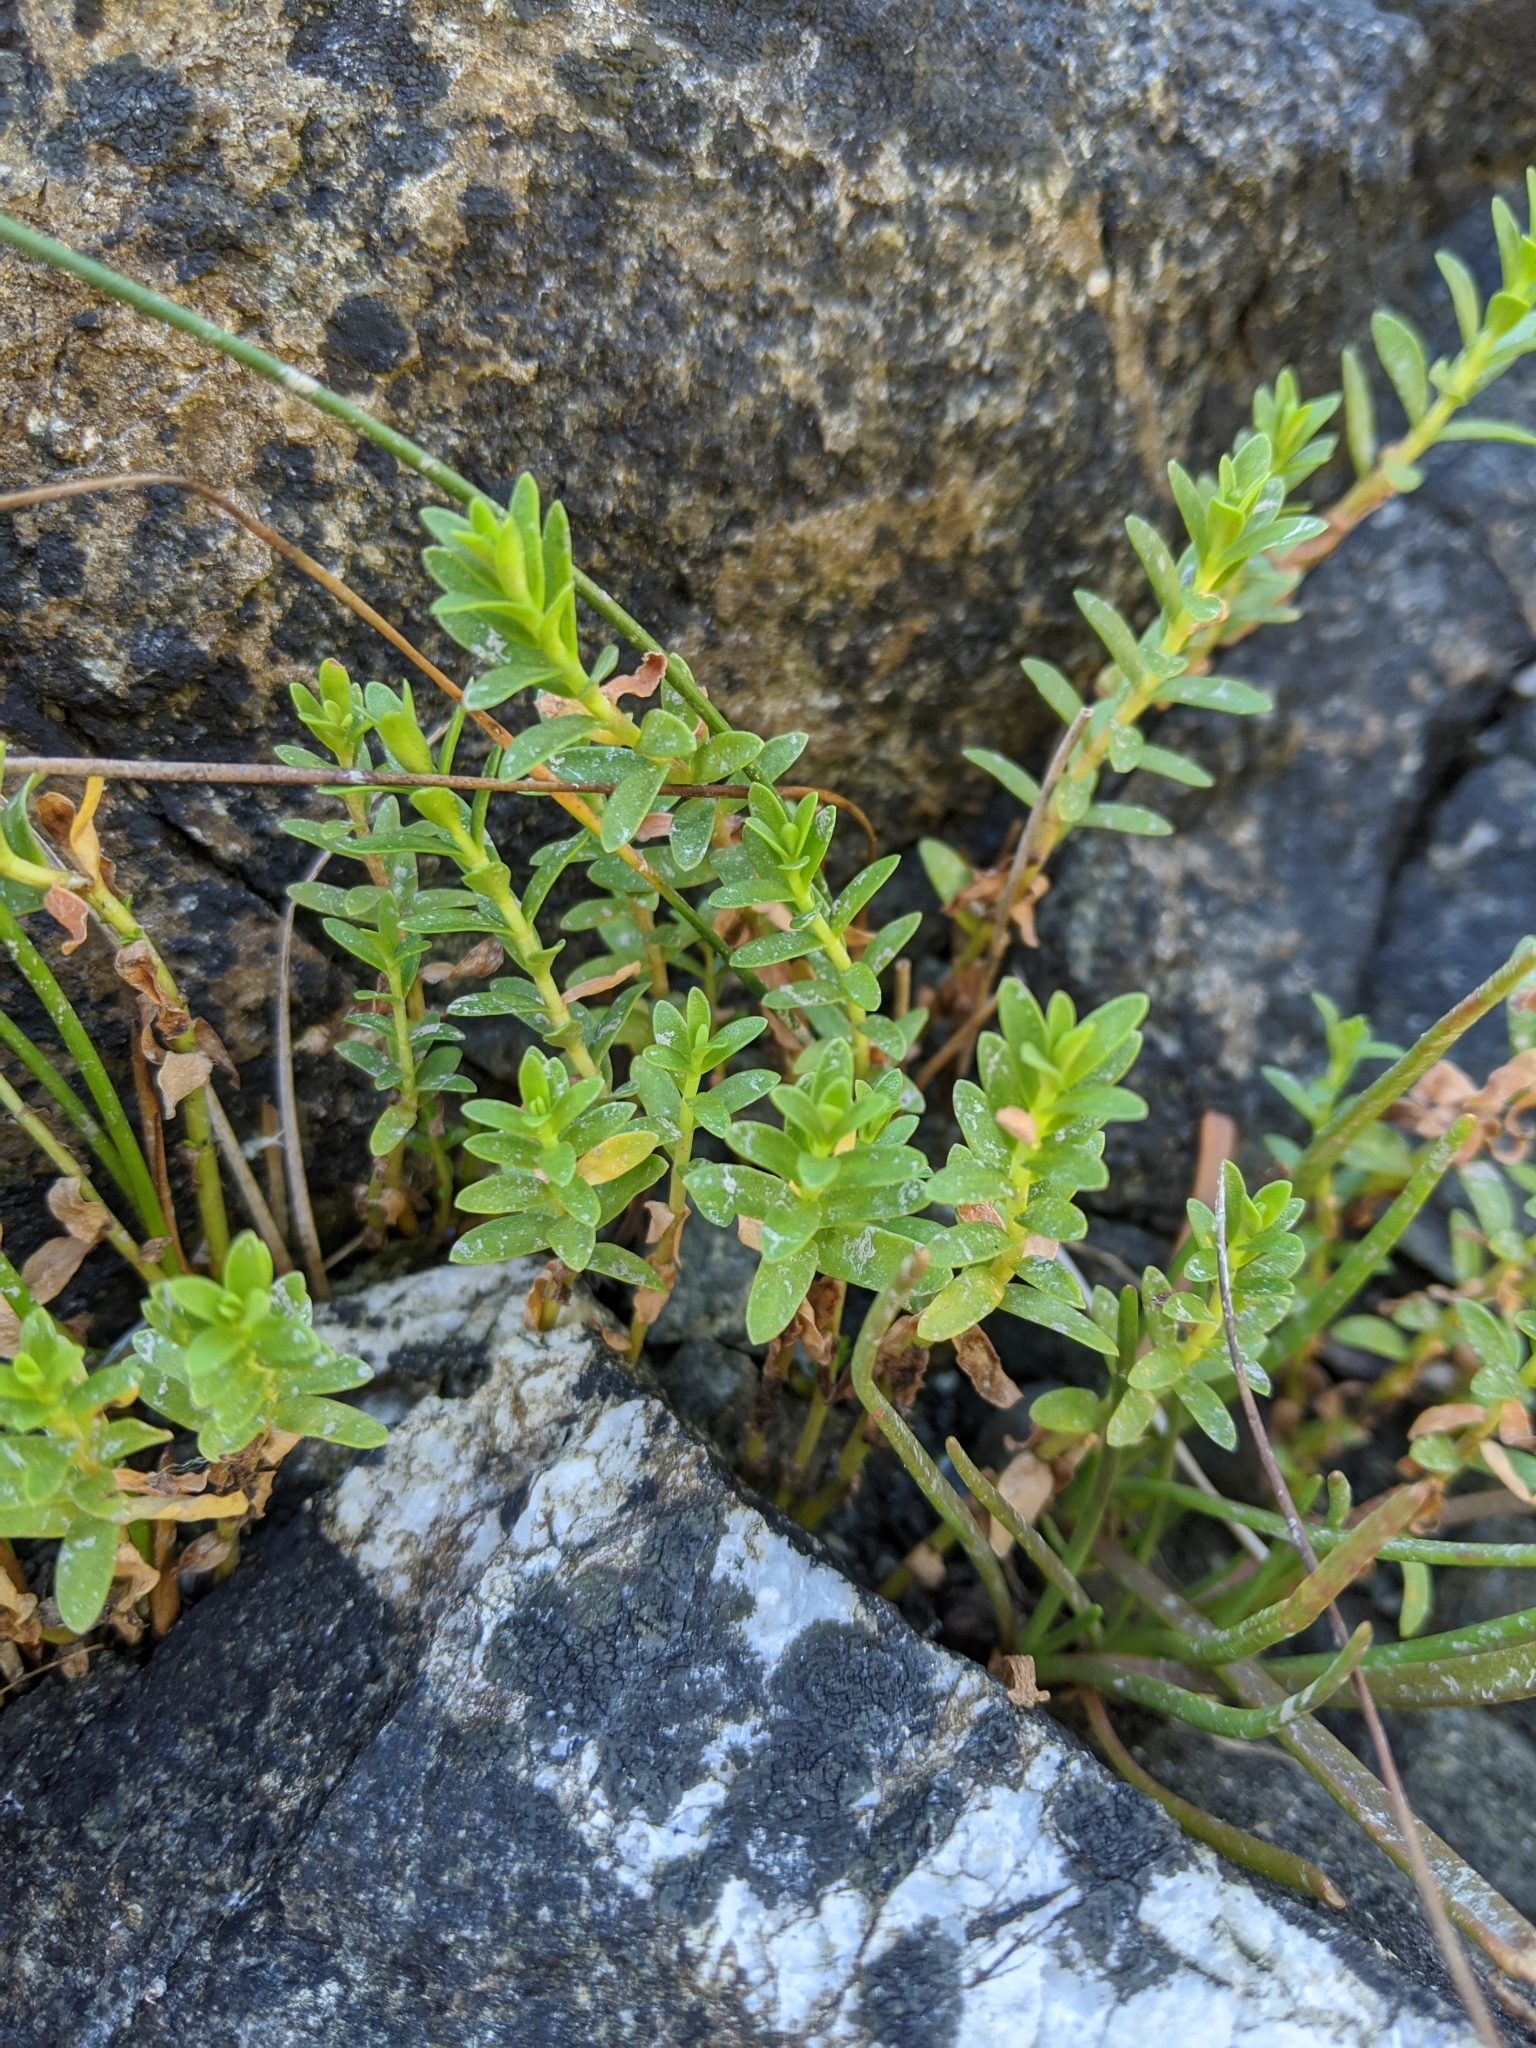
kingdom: Plantae
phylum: Tracheophyta
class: Magnoliopsida
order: Ericales
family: Primulaceae
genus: Lysimachia
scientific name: Lysimachia maritima
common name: Sea milkwort
